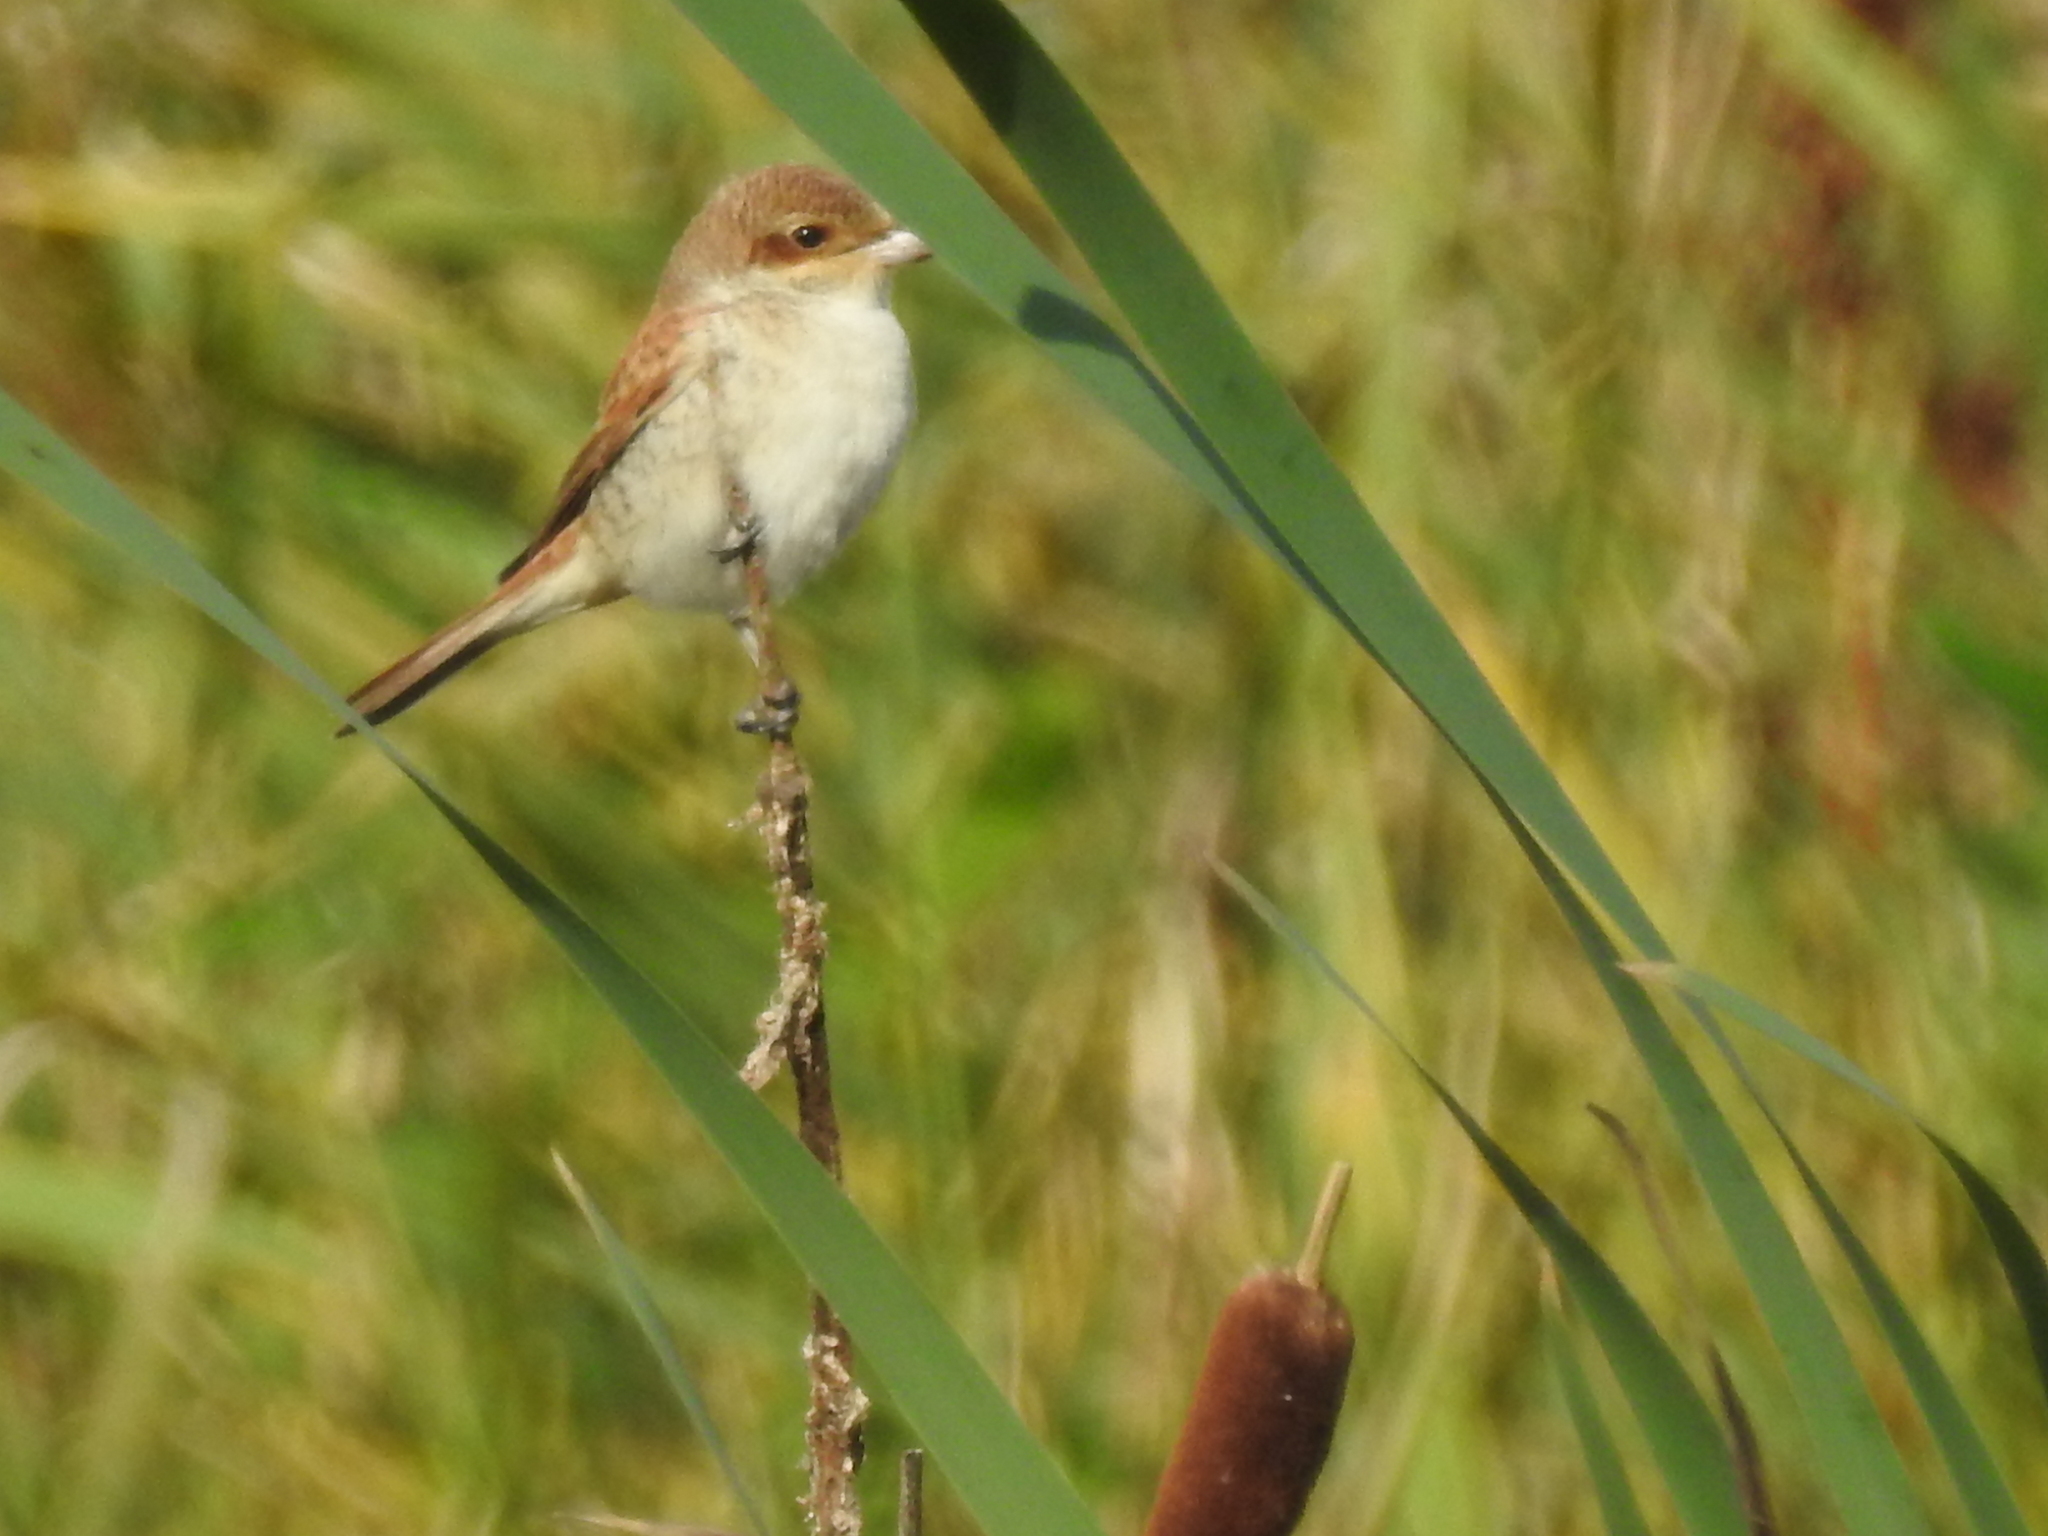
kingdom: Animalia
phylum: Chordata
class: Aves
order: Passeriformes
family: Laniidae
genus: Lanius
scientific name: Lanius collurio
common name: Red-backed shrike
